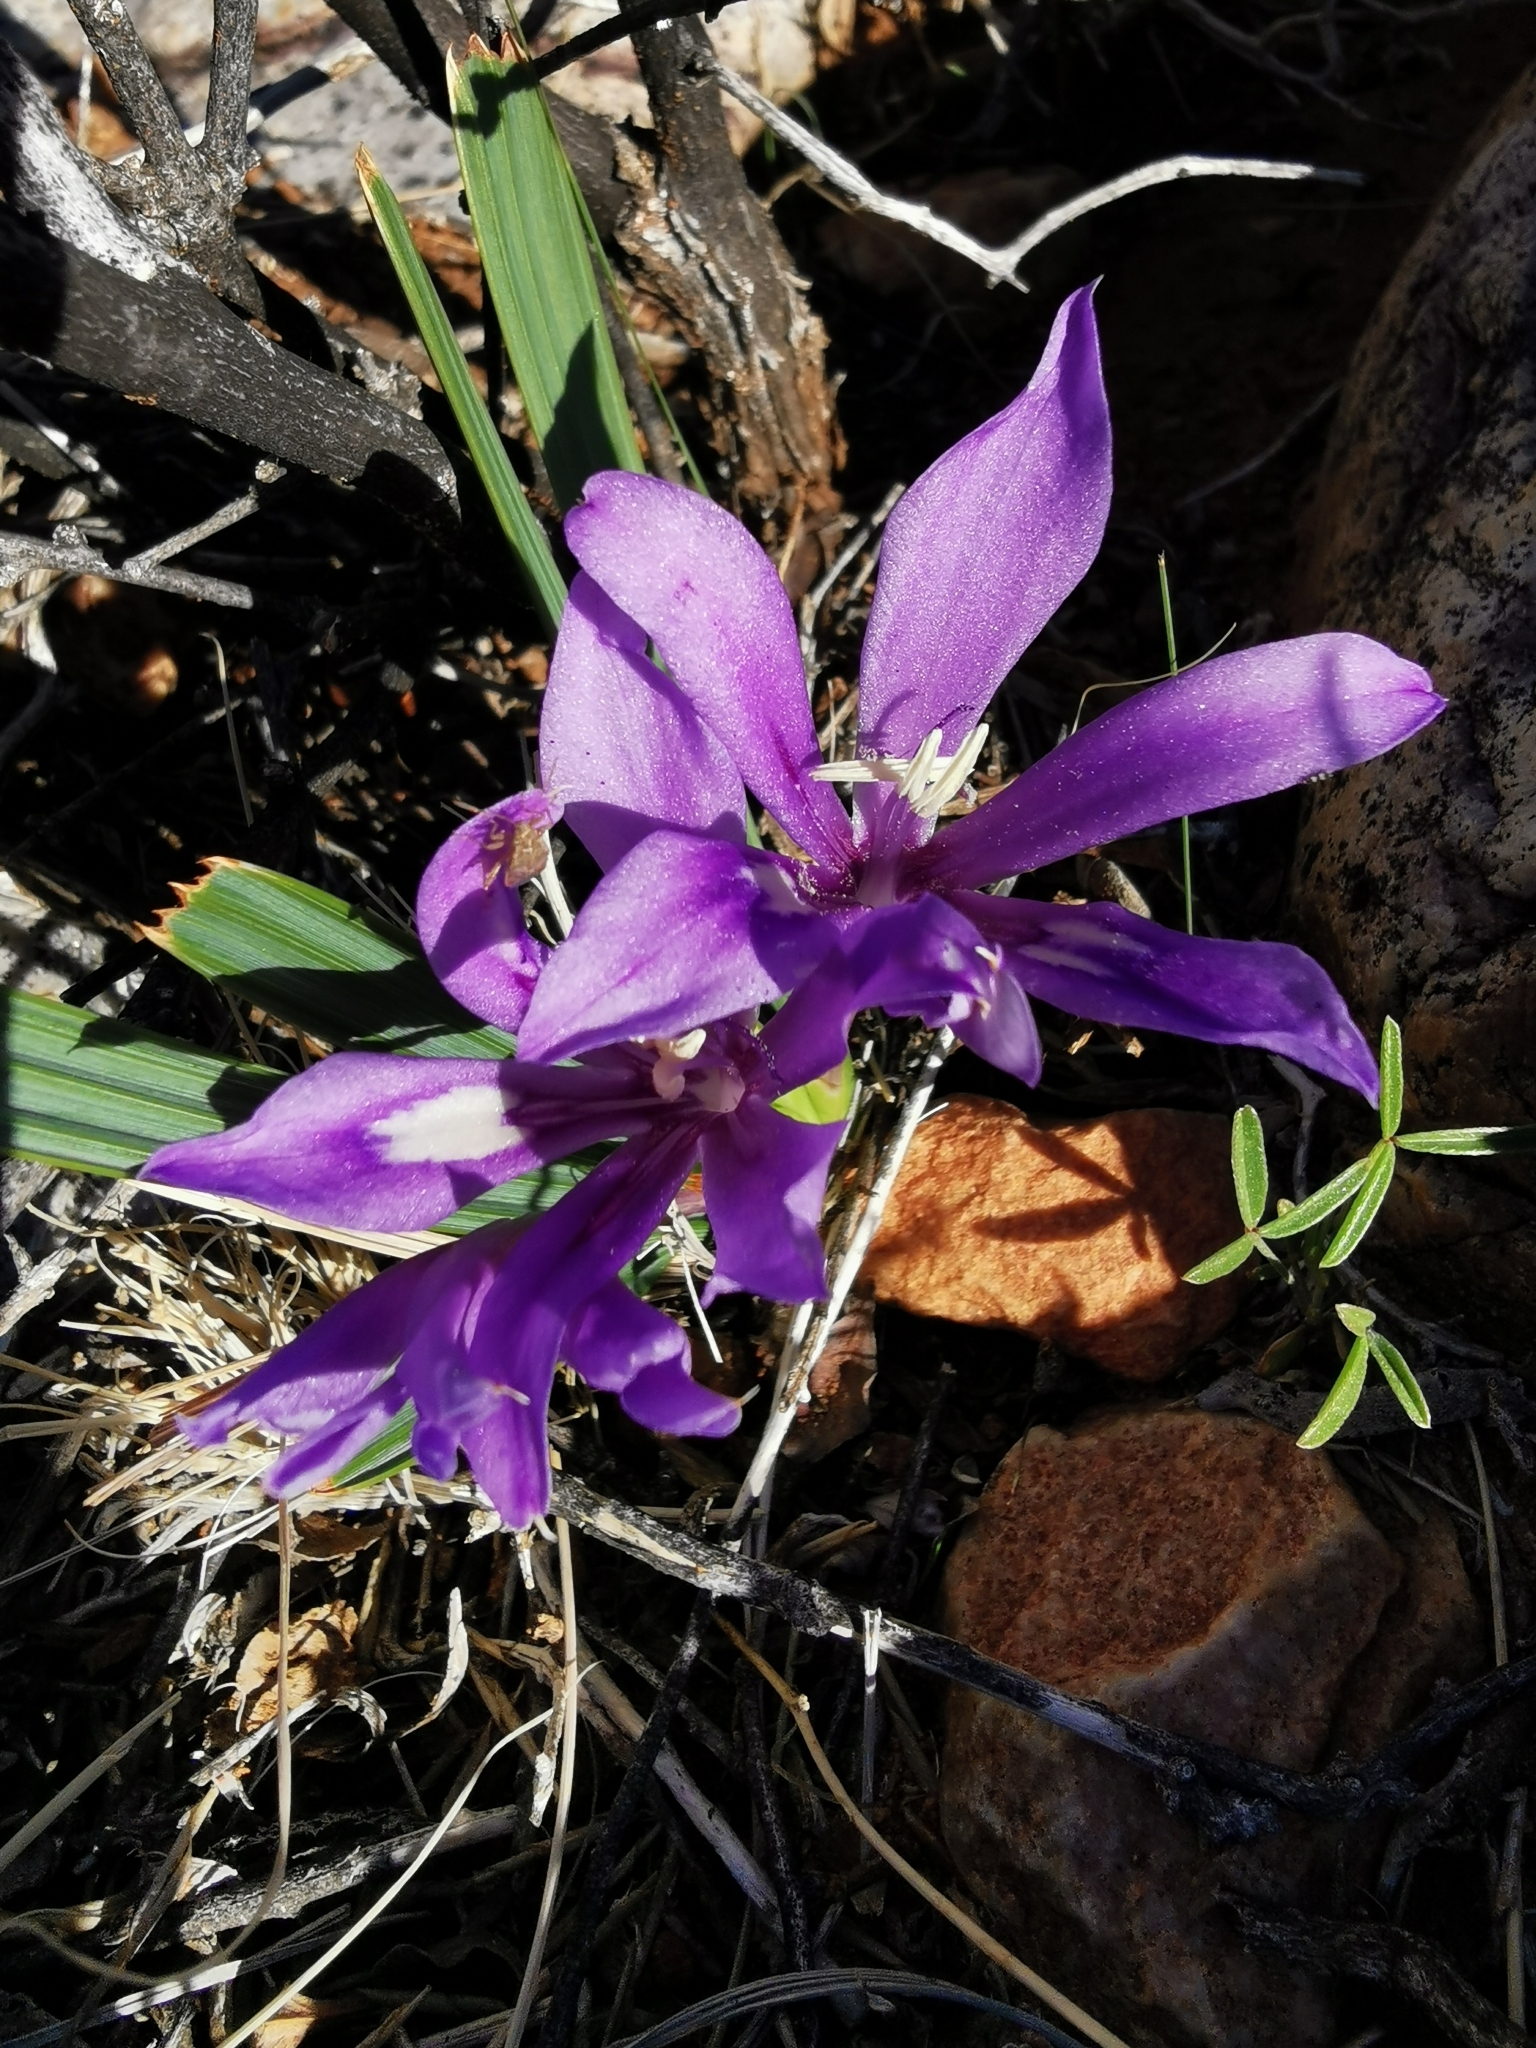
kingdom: Plantae
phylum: Tracheophyta
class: Liliopsida
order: Asparagales
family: Iridaceae
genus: Babiana
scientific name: Babiana cuneata
